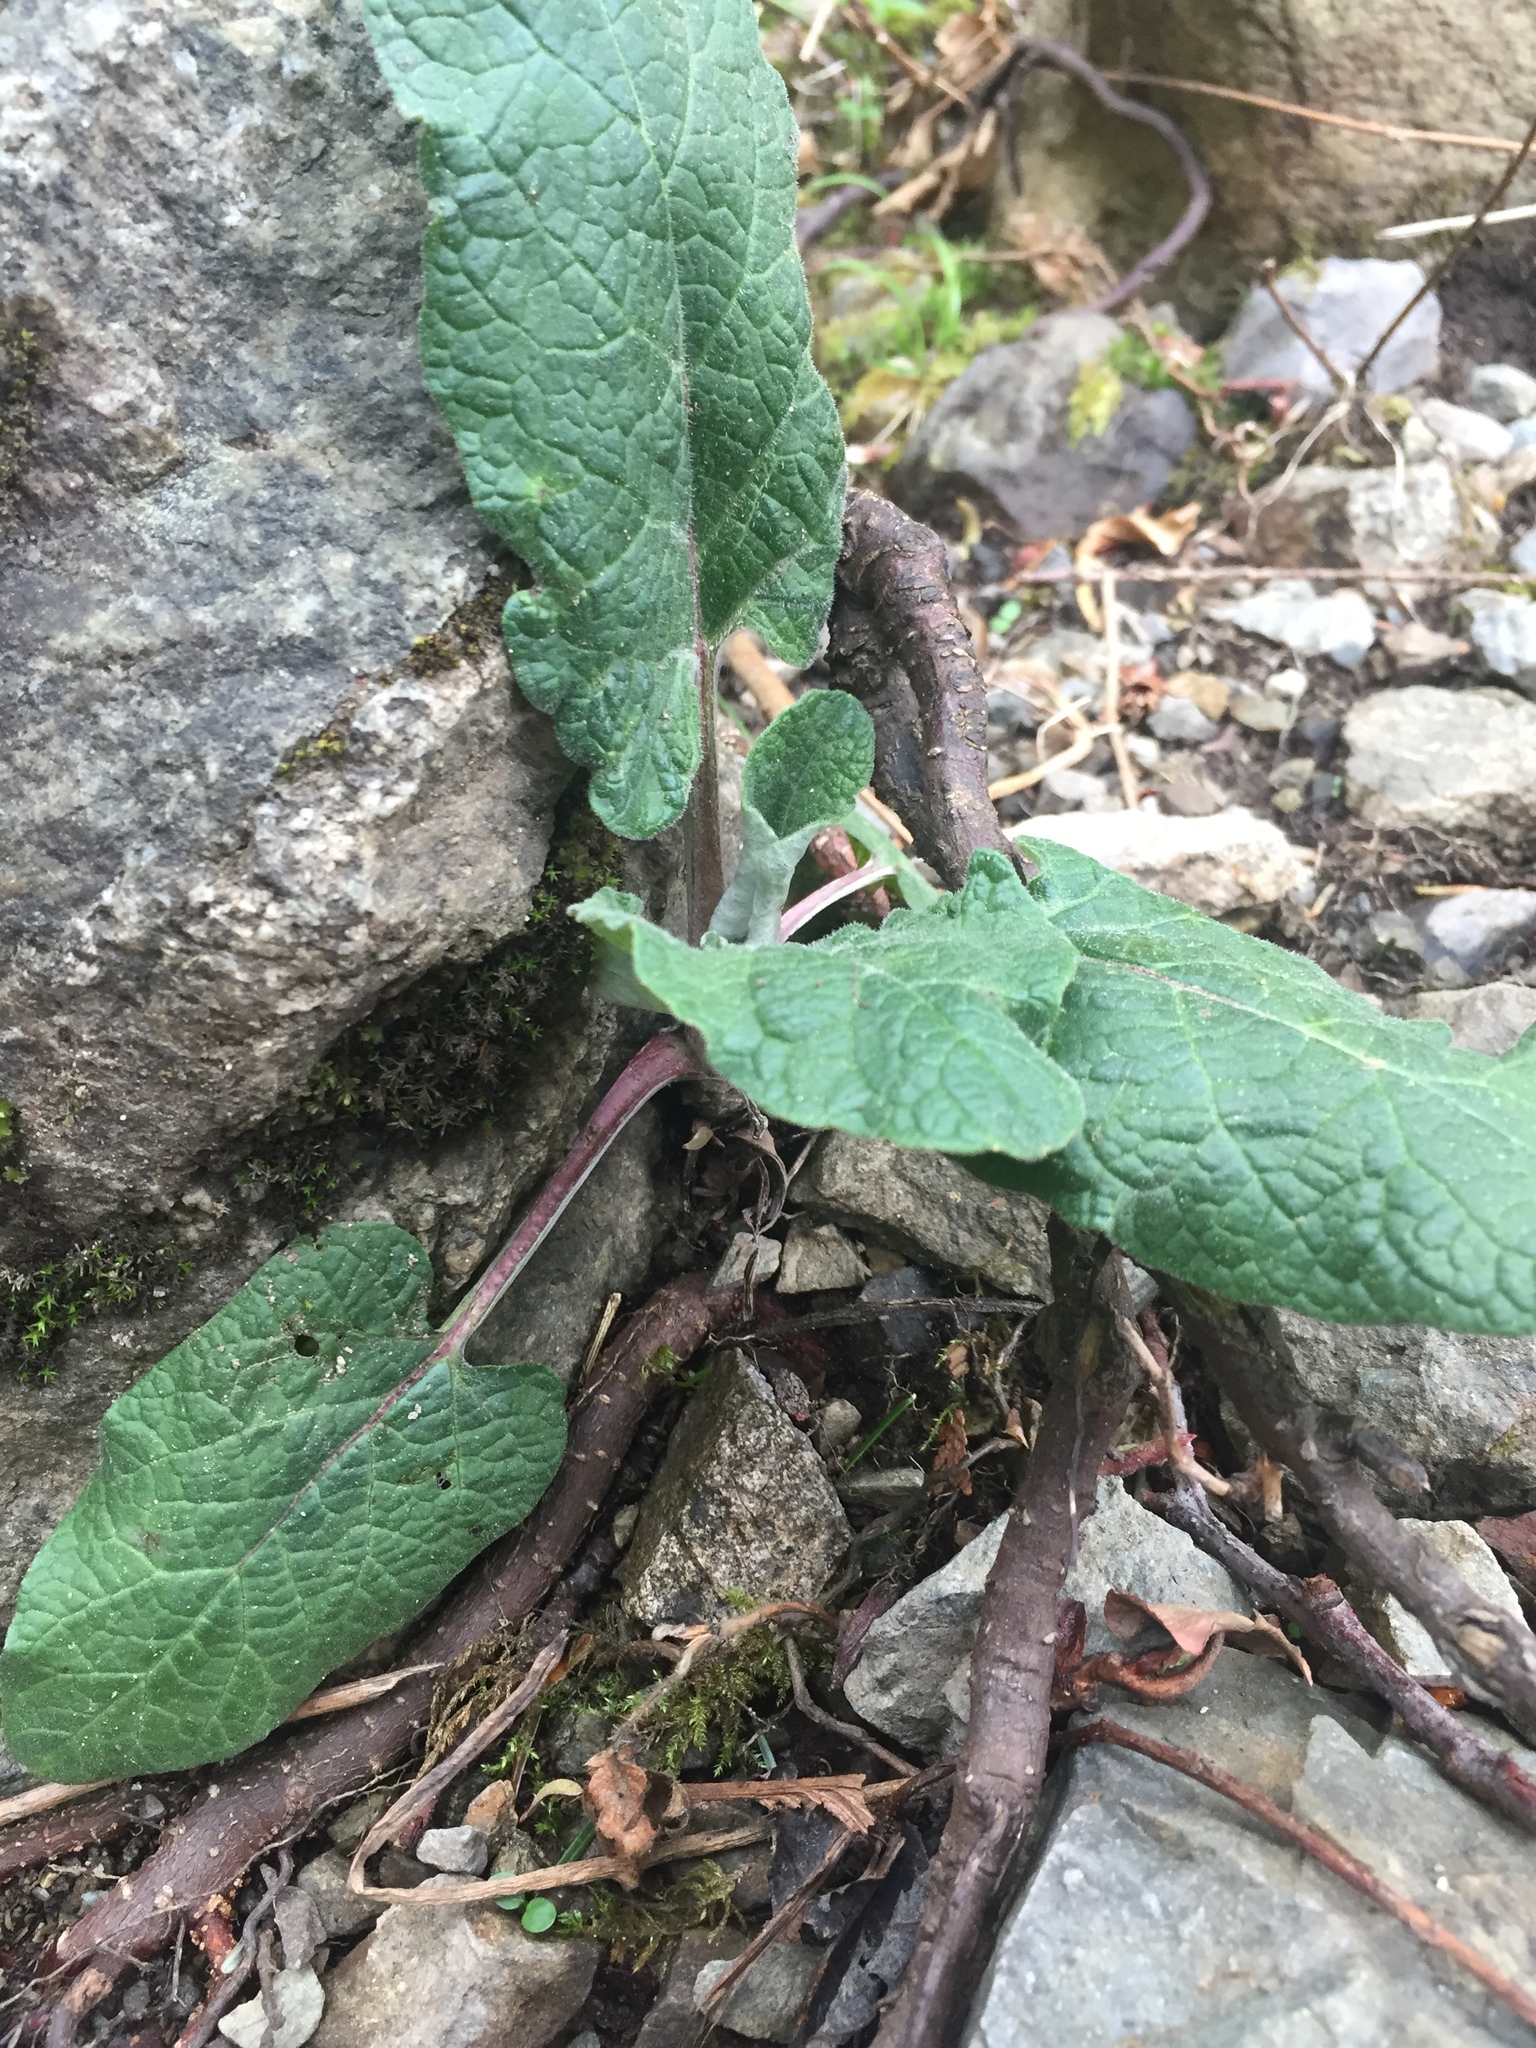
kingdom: Plantae
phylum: Tracheophyta
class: Magnoliopsida
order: Asterales
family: Asteraceae
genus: Arctium
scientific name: Arctium
